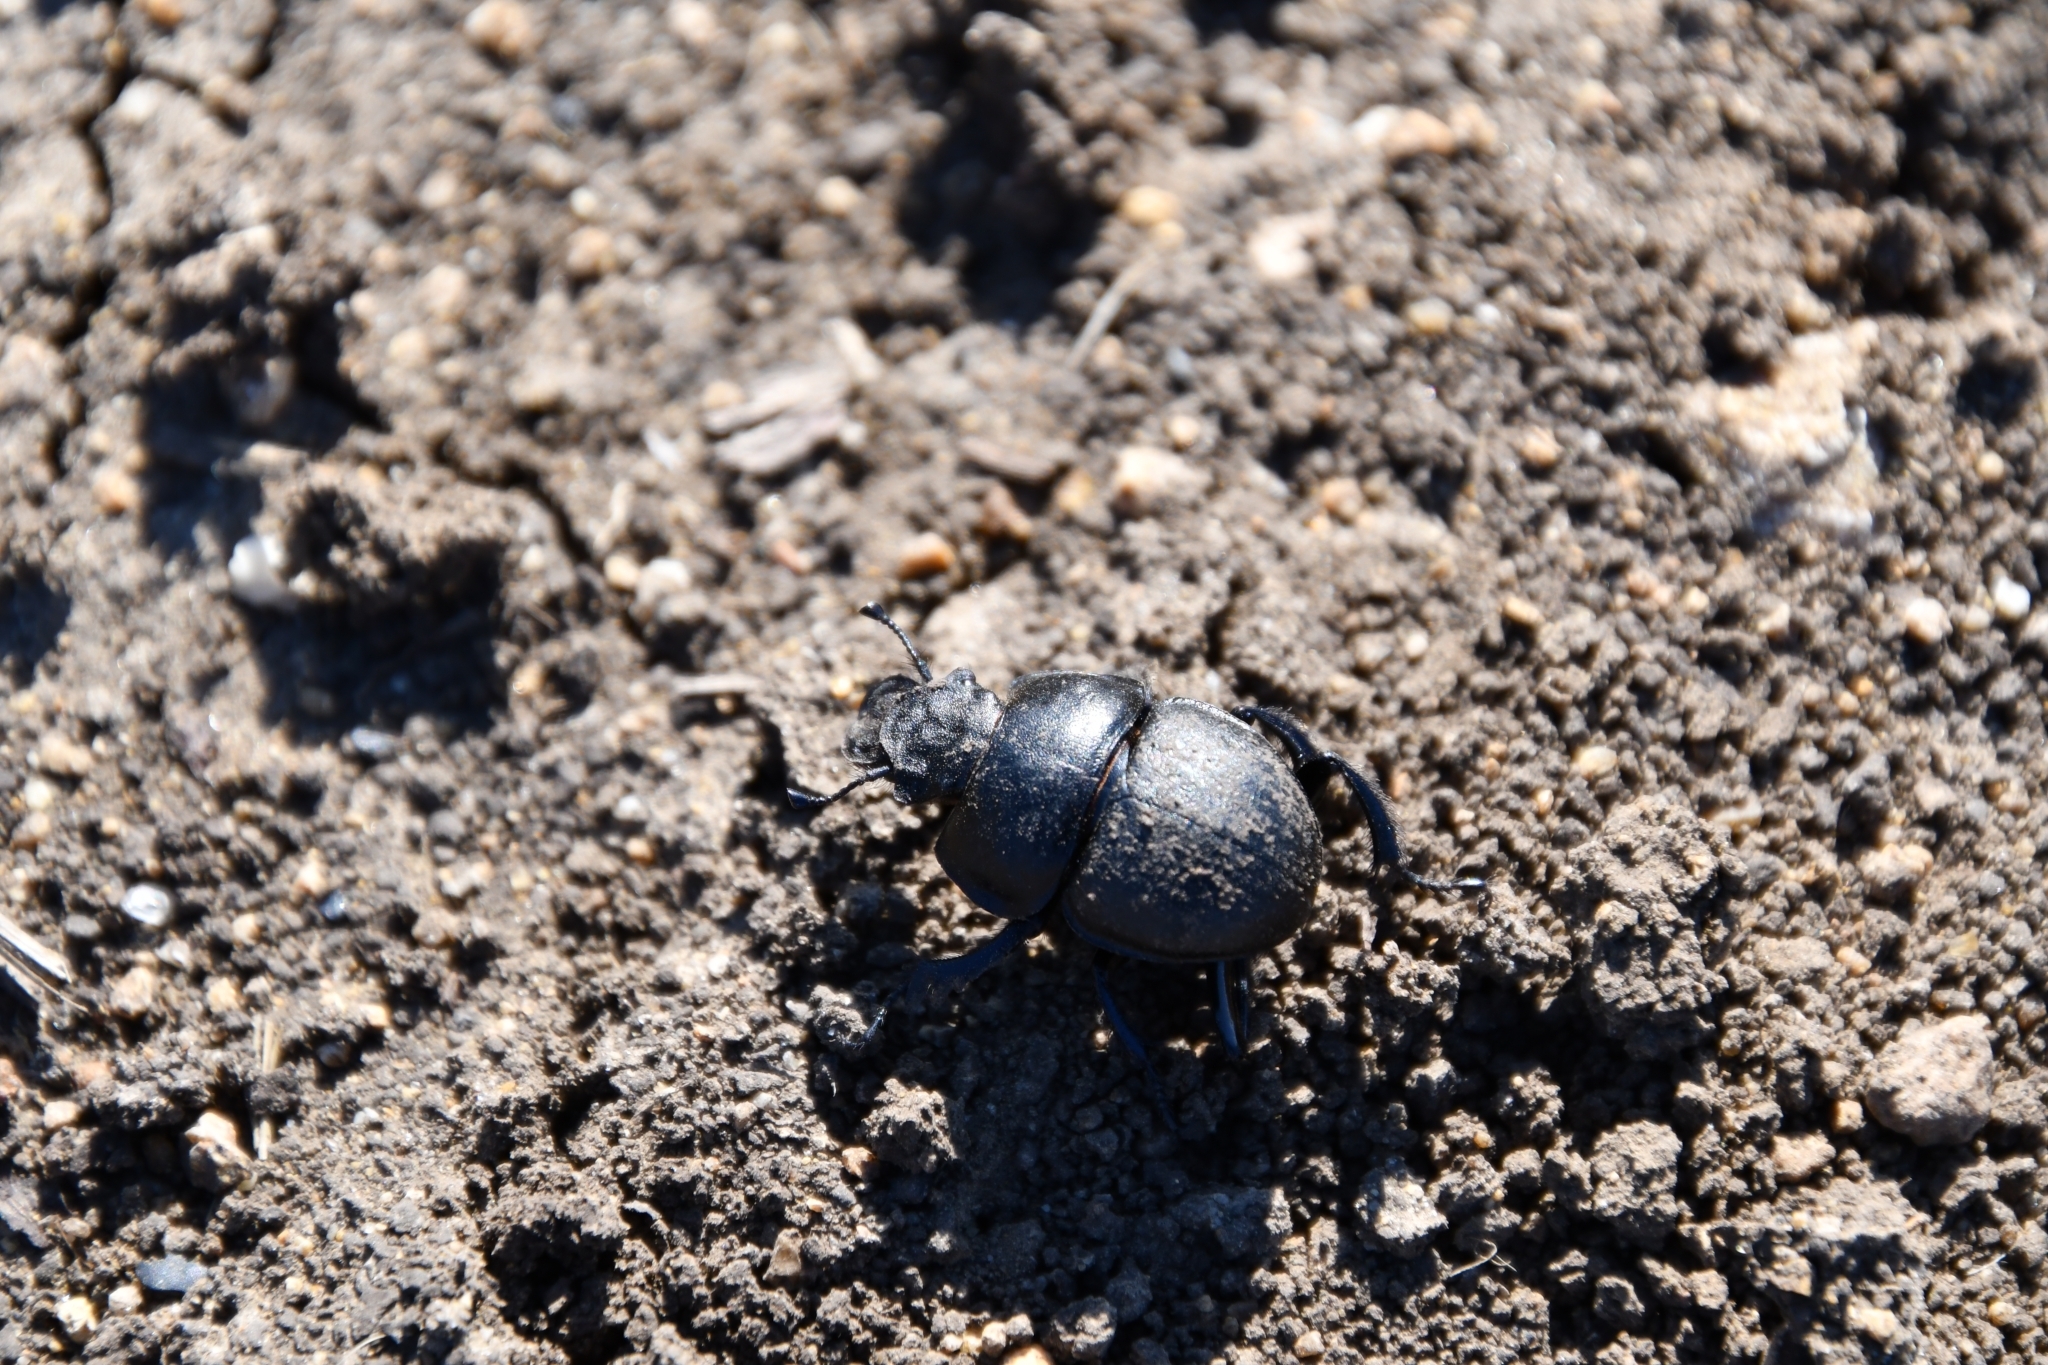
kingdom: Animalia
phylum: Arthropoda
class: Insecta
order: Coleoptera
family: Geotrupidae
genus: Lethrus
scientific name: Lethrus apterus
